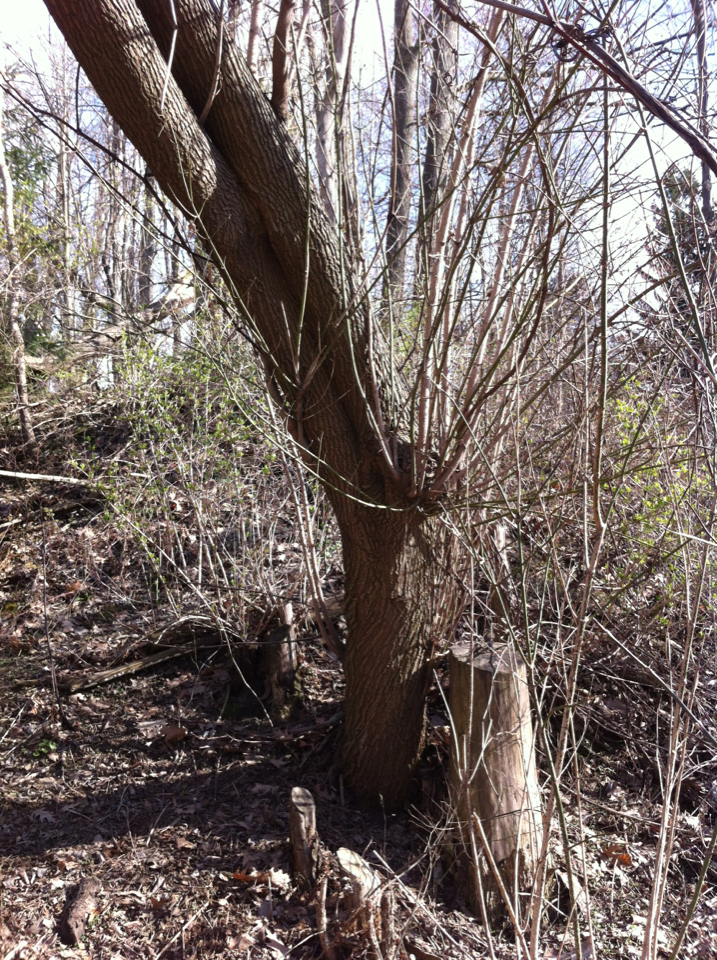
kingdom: Plantae
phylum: Tracheophyta
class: Magnoliopsida
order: Sapindales
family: Sapindaceae
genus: Acer
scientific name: Acer negundo
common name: Ashleaf maple
